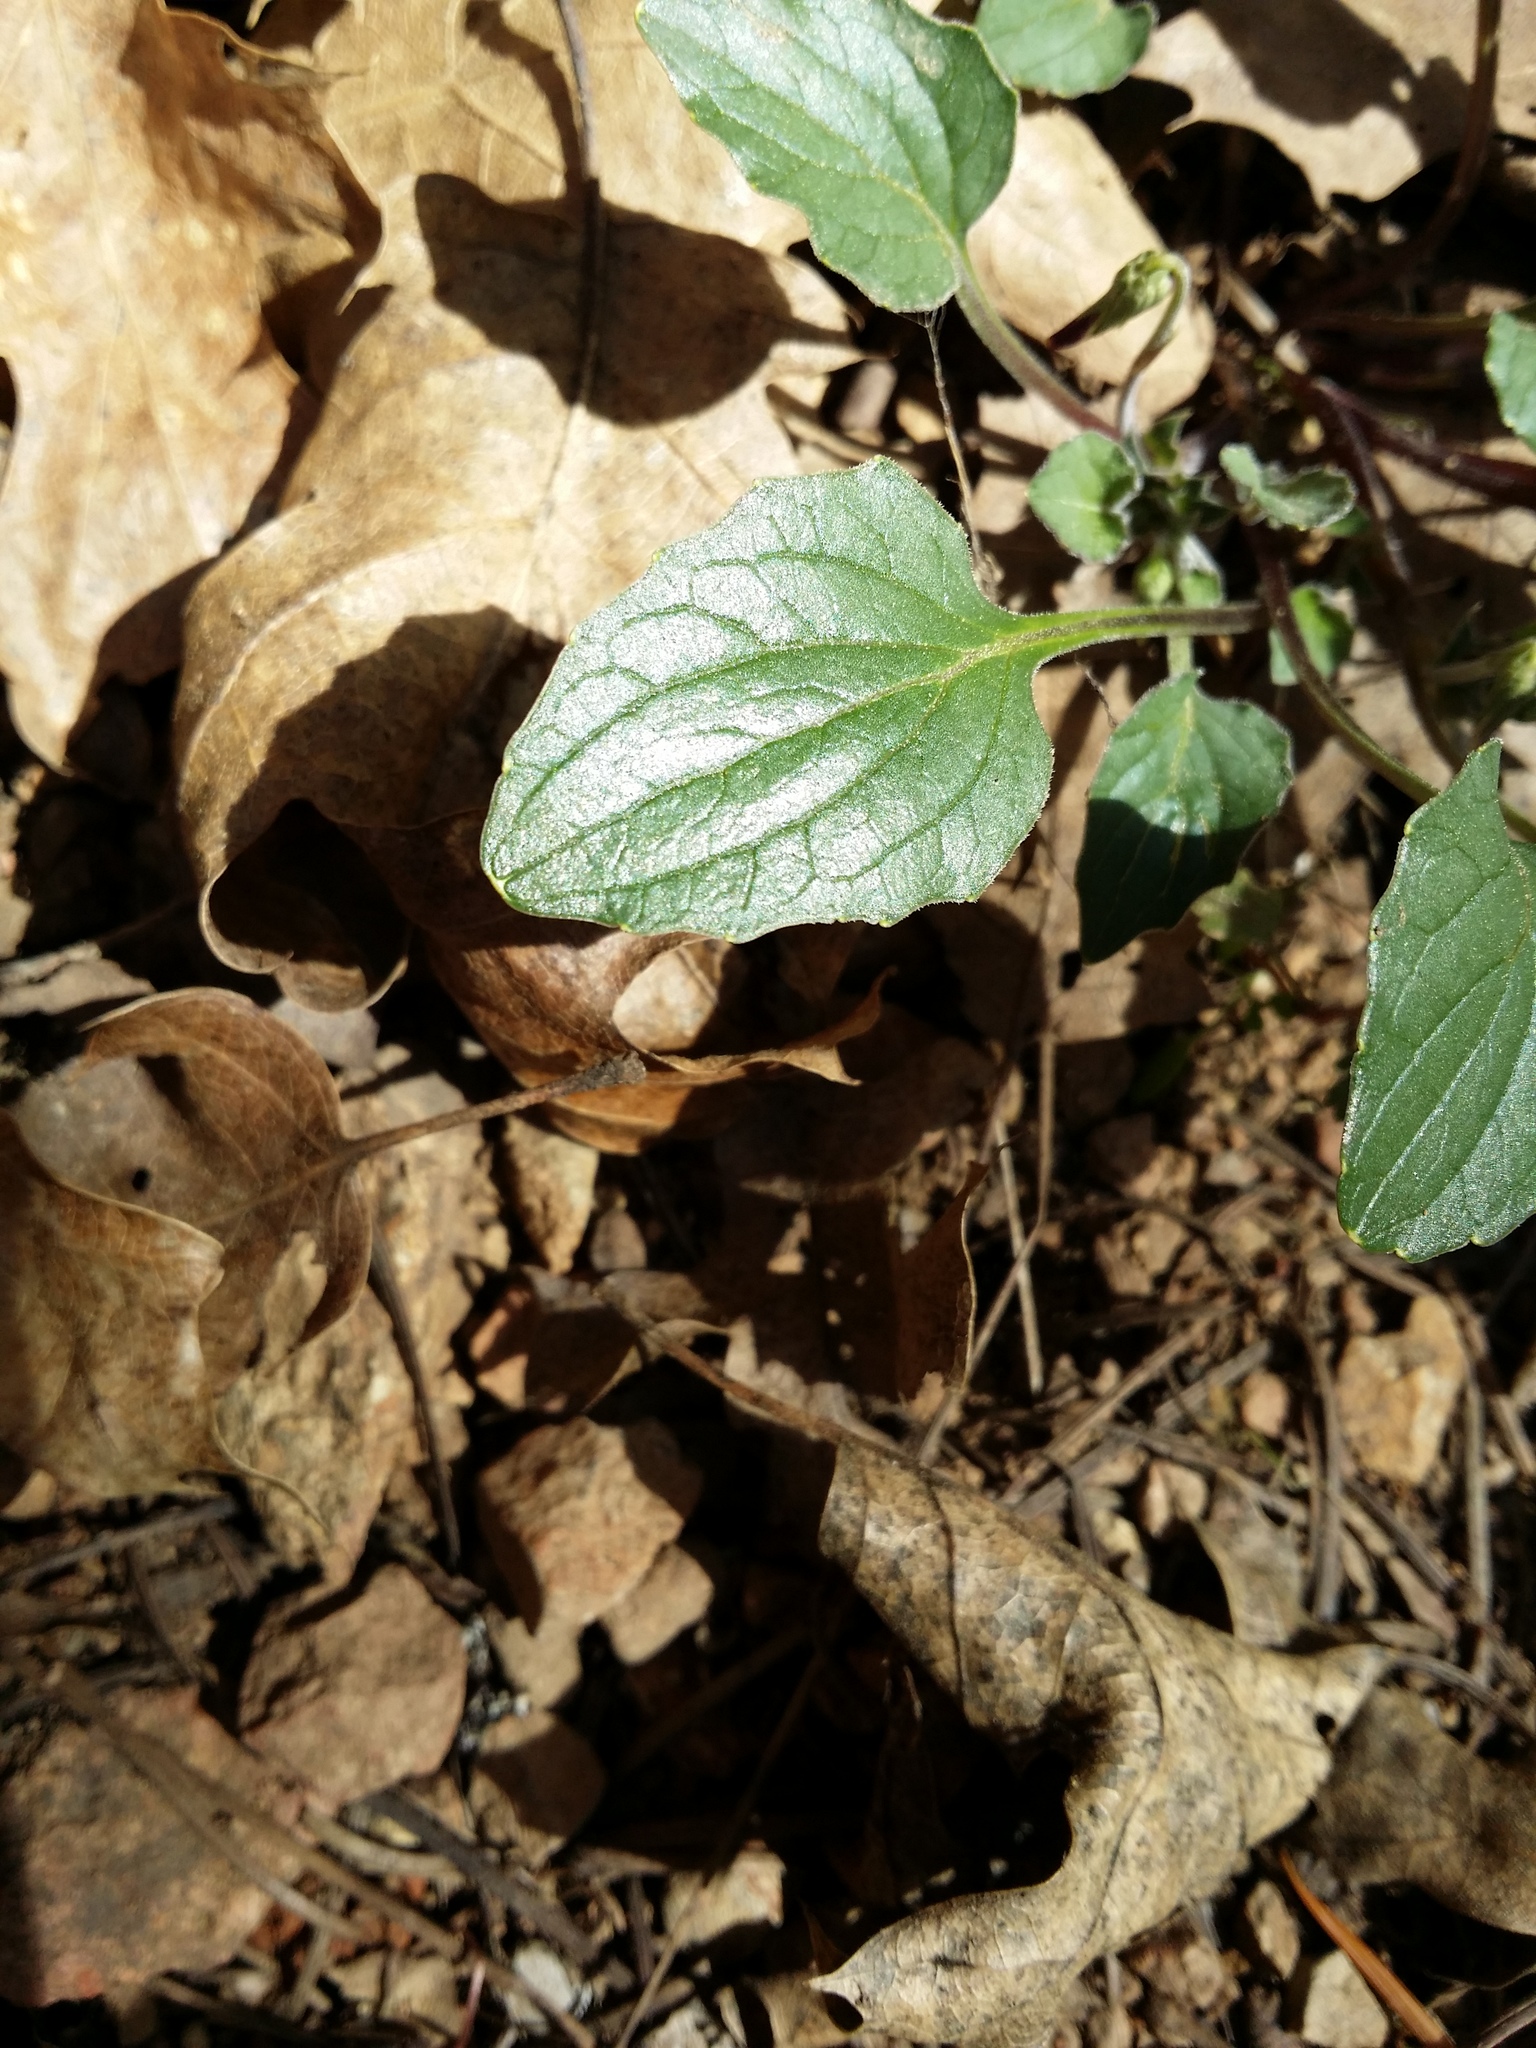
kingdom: Plantae
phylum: Tracheophyta
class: Magnoliopsida
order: Malpighiales
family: Violaceae
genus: Viola
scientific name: Viola purpurea
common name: Pine violet
